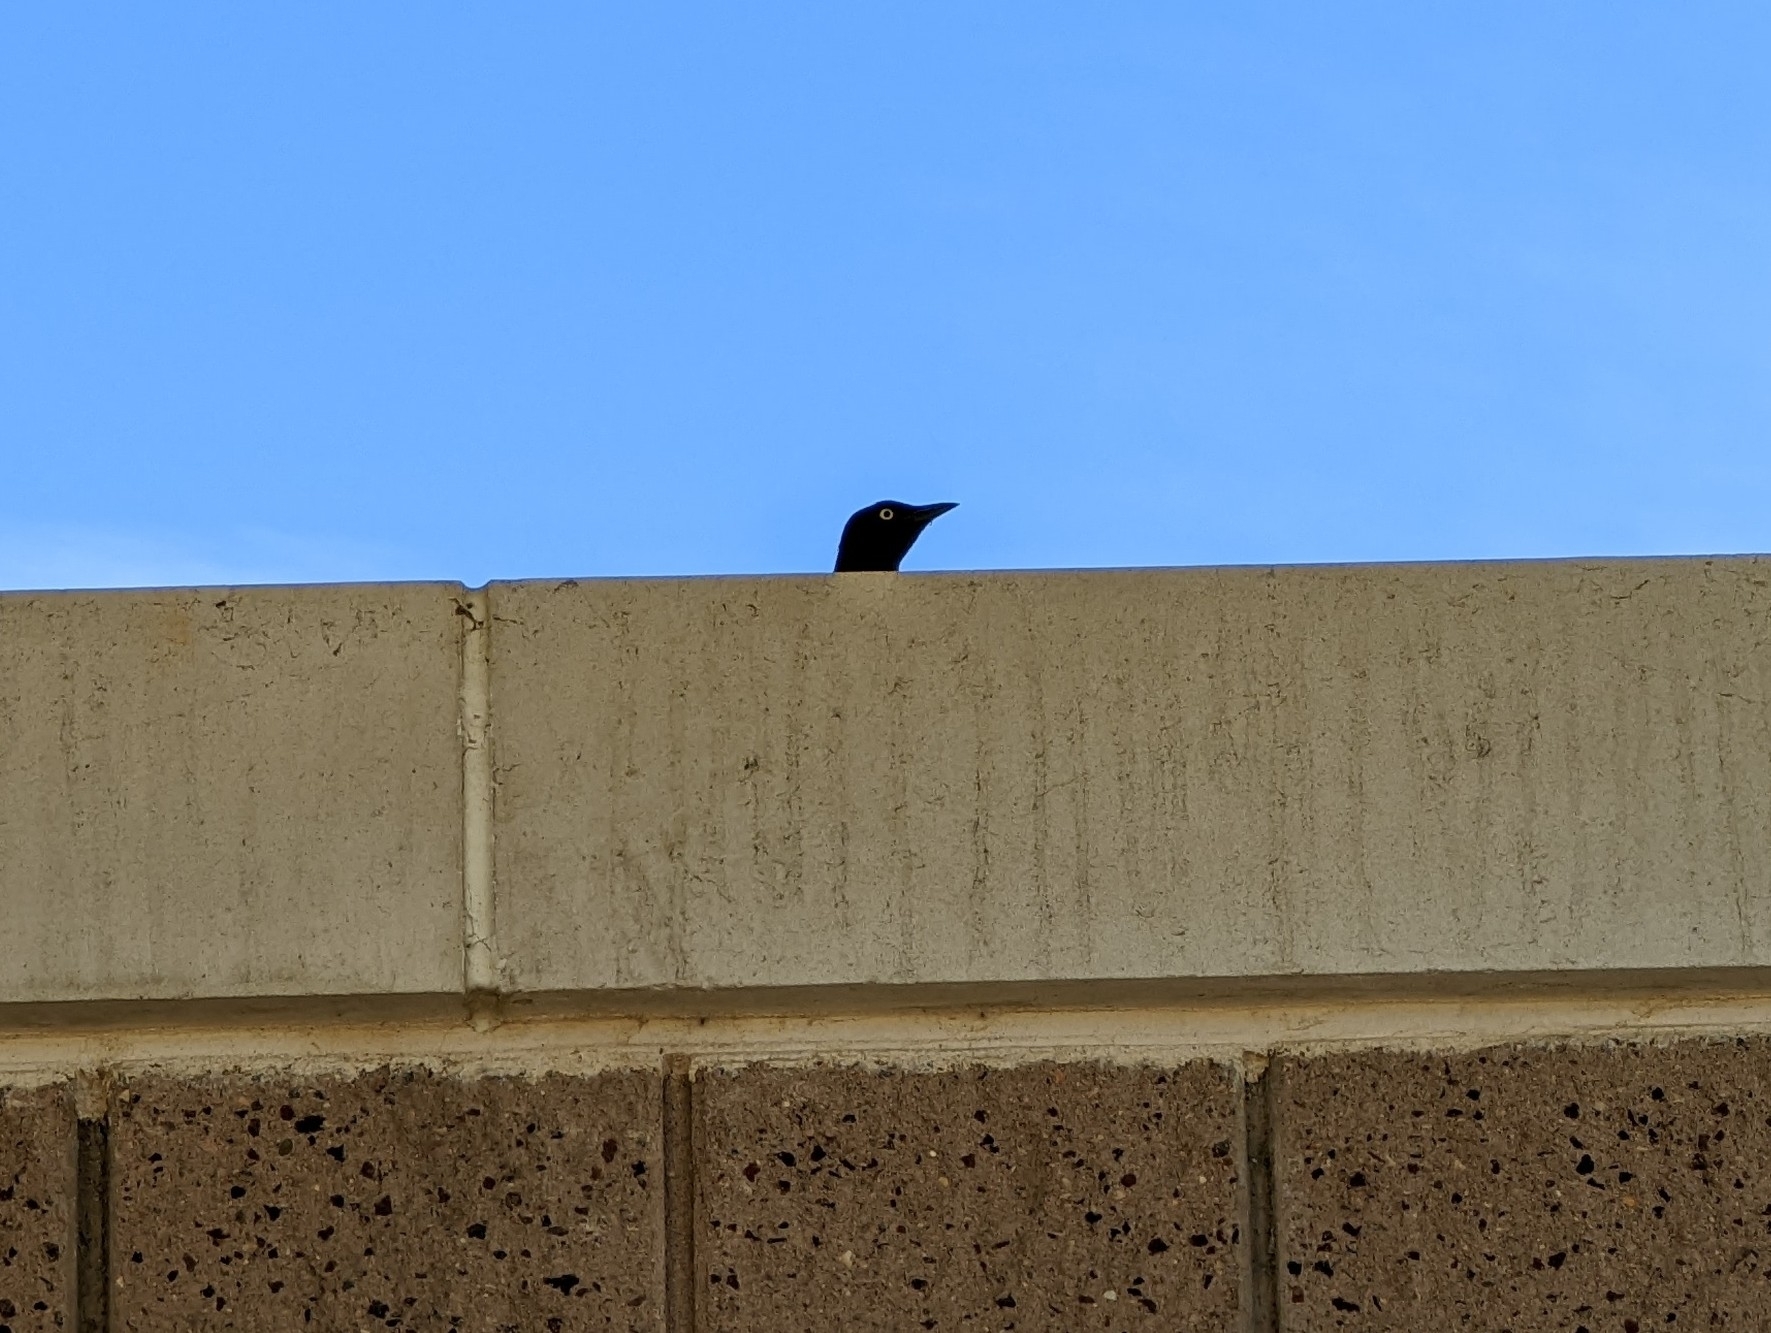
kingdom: Animalia
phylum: Chordata
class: Aves
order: Passeriformes
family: Icteridae
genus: Euphagus
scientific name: Euphagus cyanocephalus
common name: Brewer's blackbird
